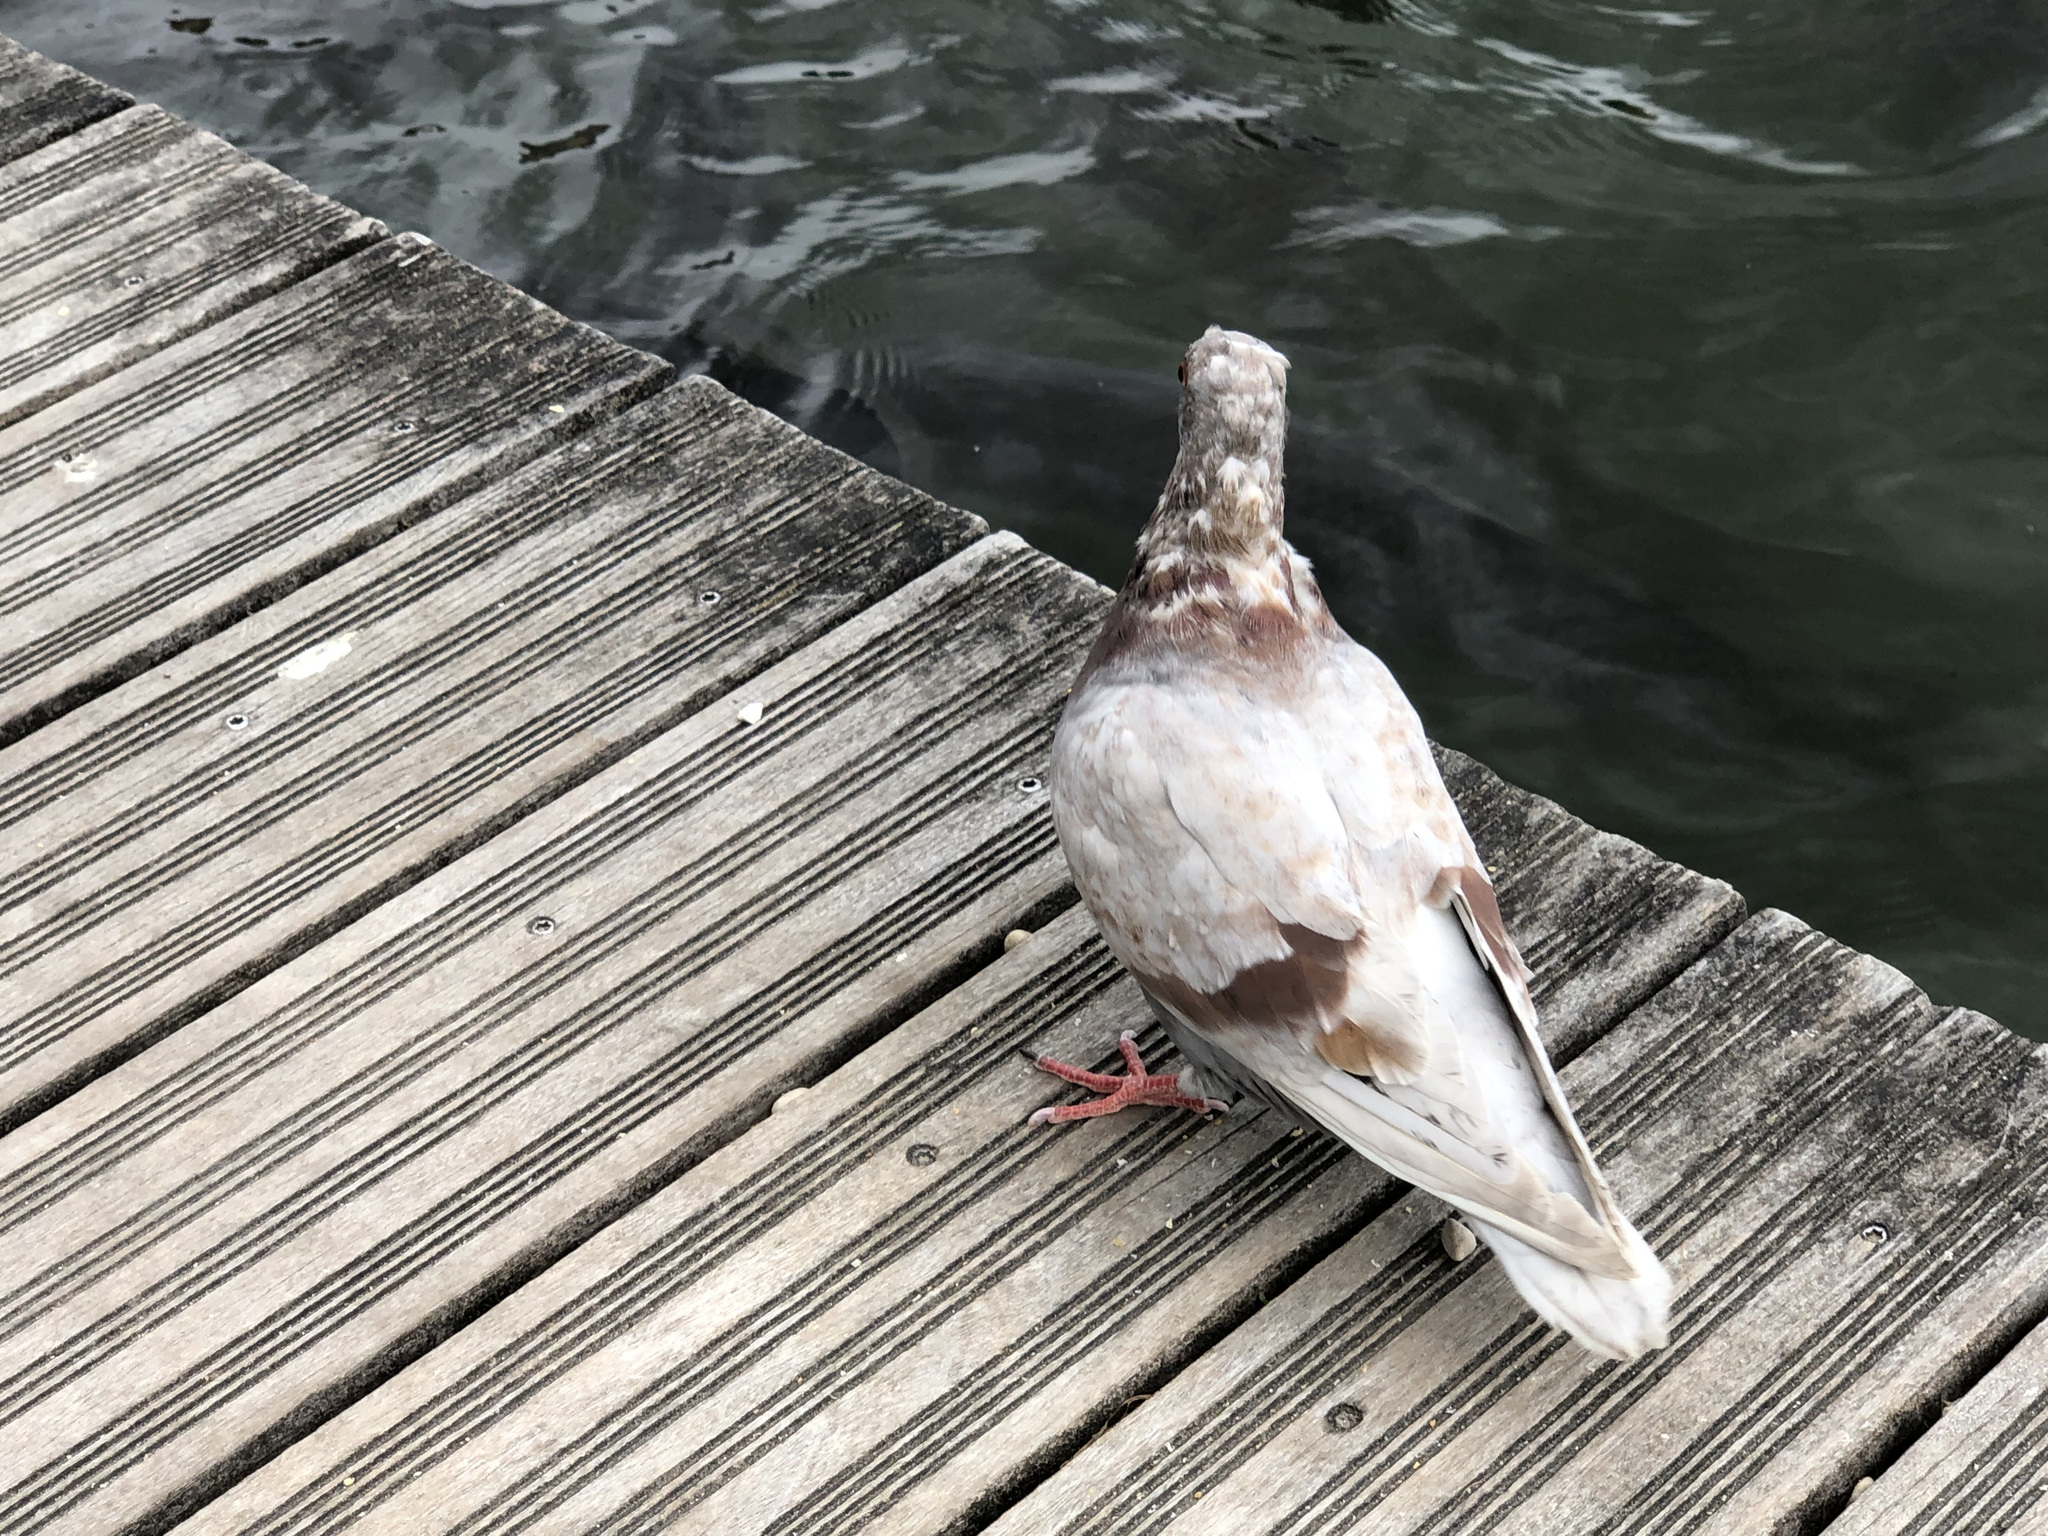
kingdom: Animalia
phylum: Chordata
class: Aves
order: Columbiformes
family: Columbidae
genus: Columba
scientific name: Columba livia
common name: Rock pigeon
